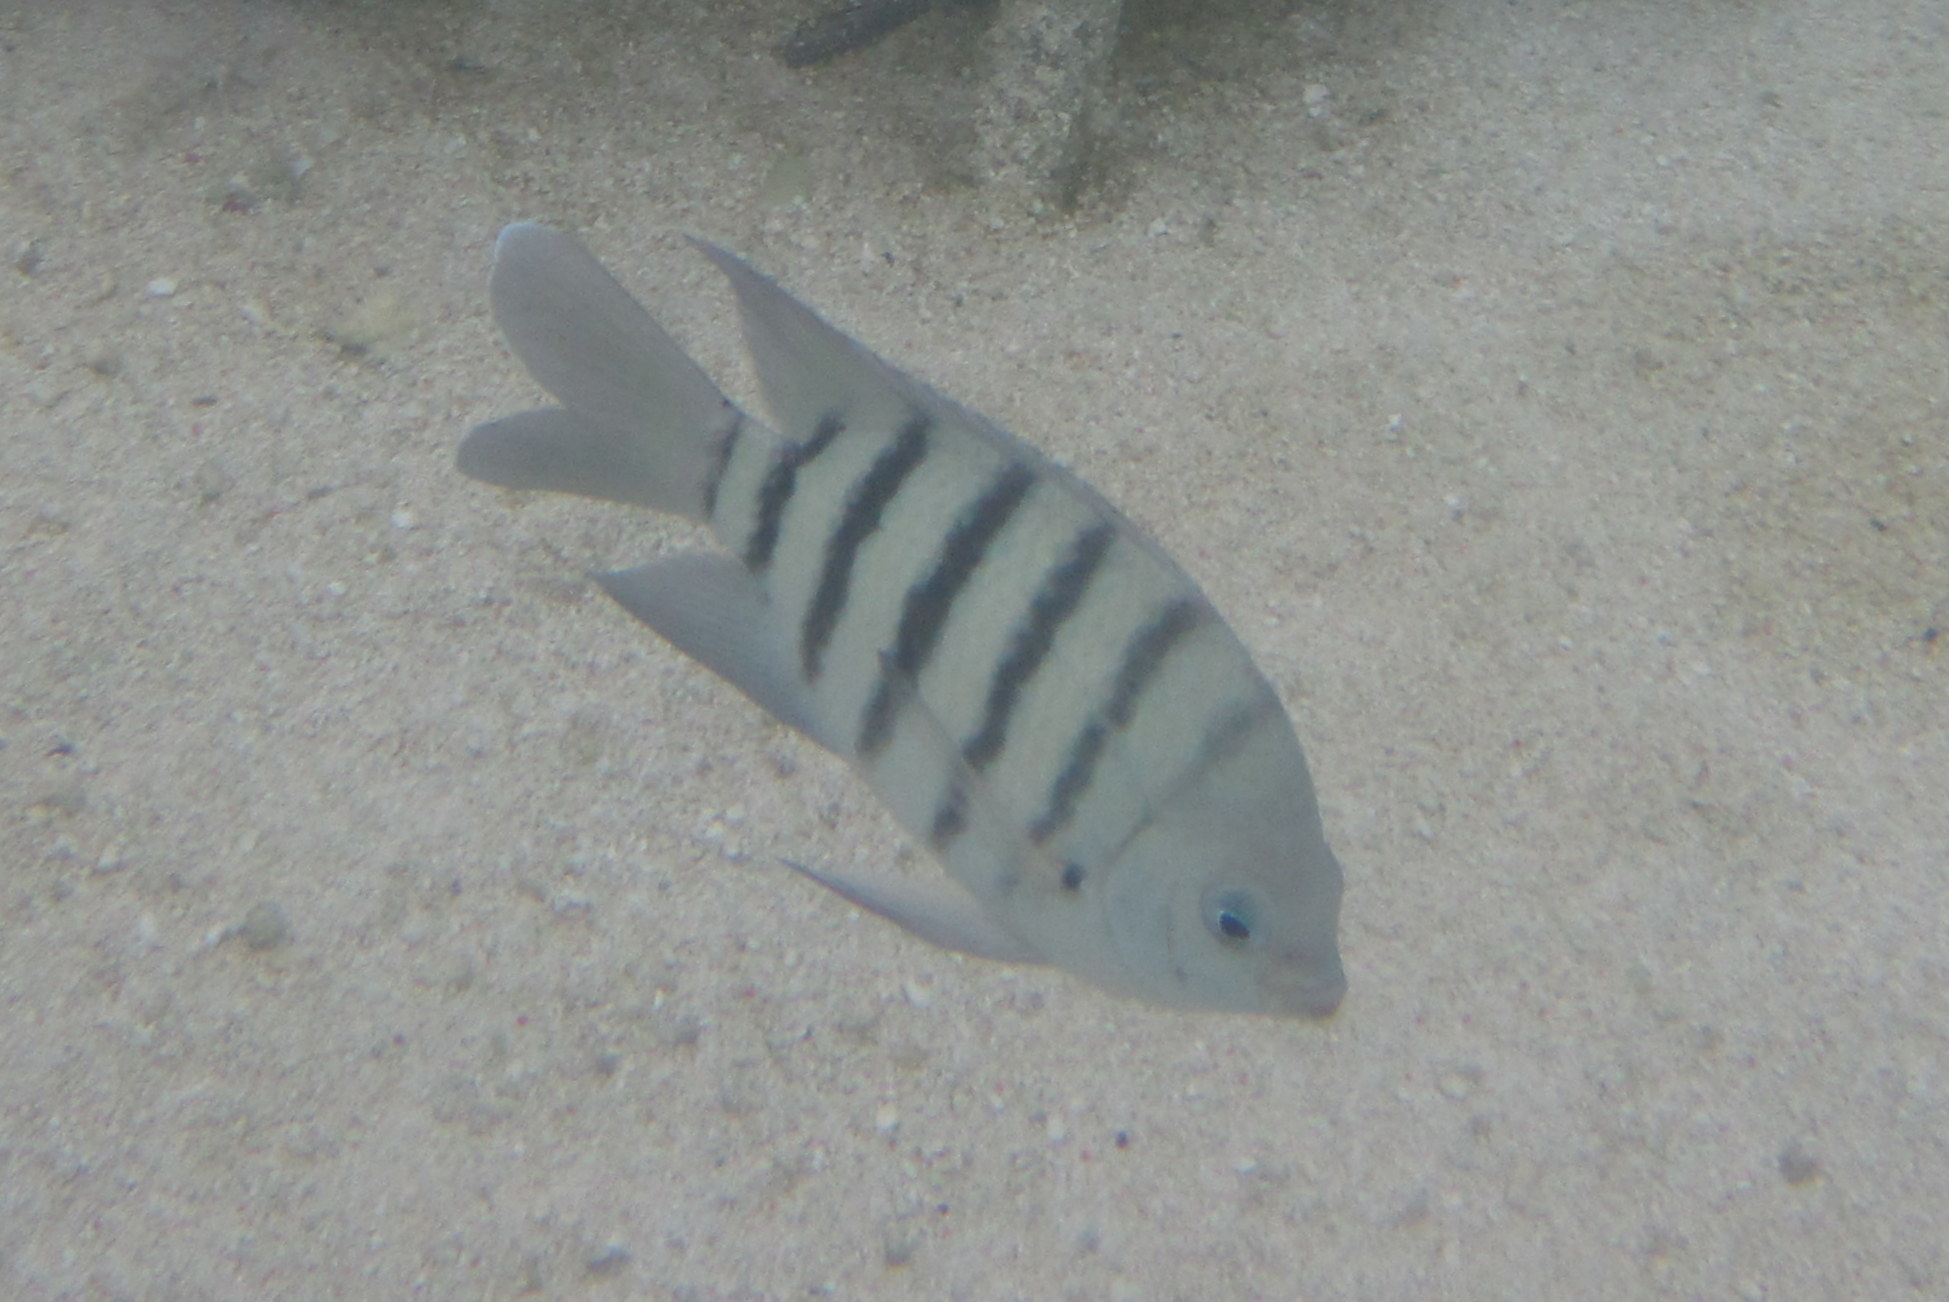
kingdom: Animalia
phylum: Chordata
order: Perciformes
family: Pomacentridae
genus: Abudefduf
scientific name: Abudefduf bengalensis
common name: Bengal sergeant
